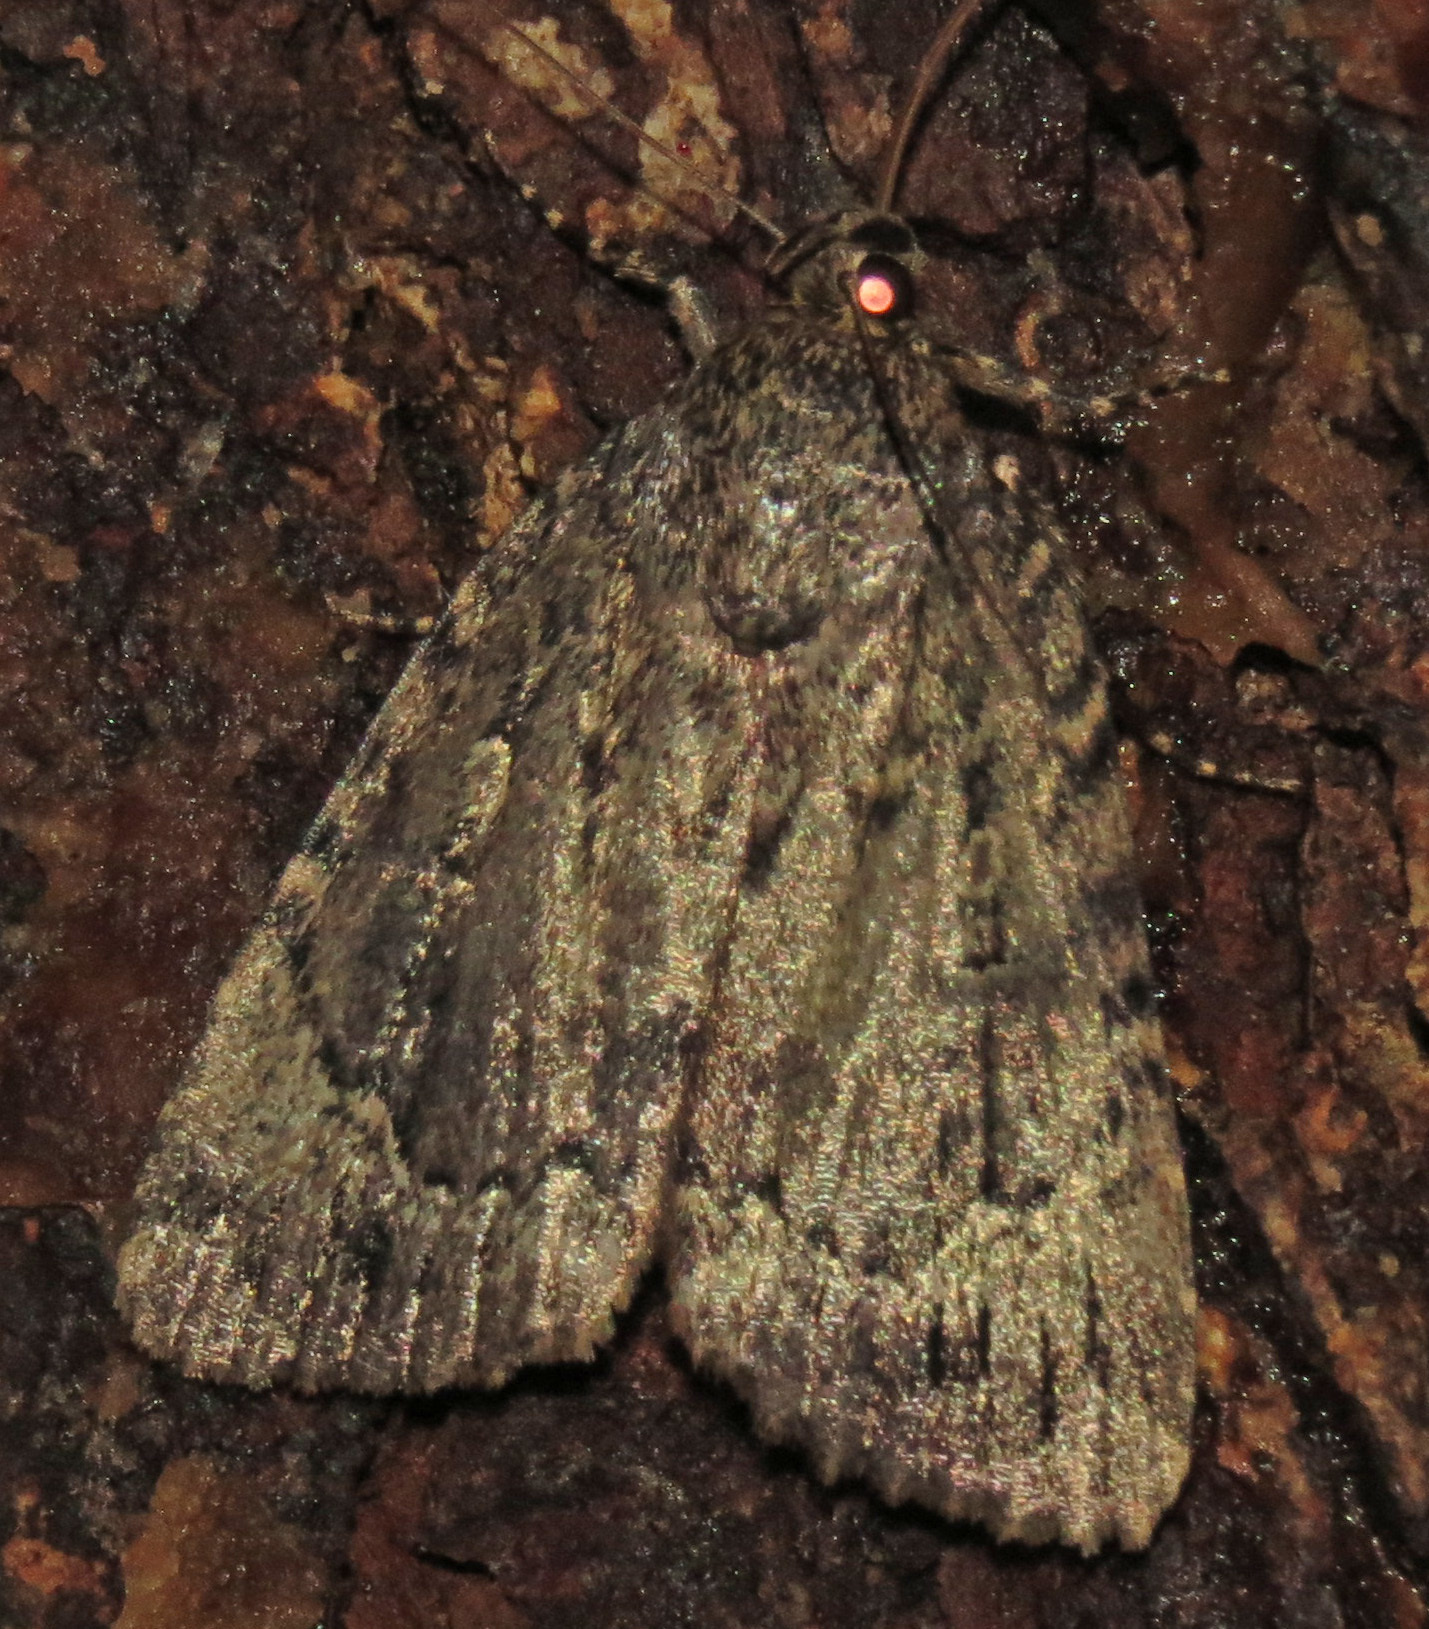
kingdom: Animalia
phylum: Arthropoda
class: Insecta
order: Lepidoptera
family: Noctuidae
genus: Amphipyra
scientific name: Amphipyra pyramidoides
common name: American copper underwing
